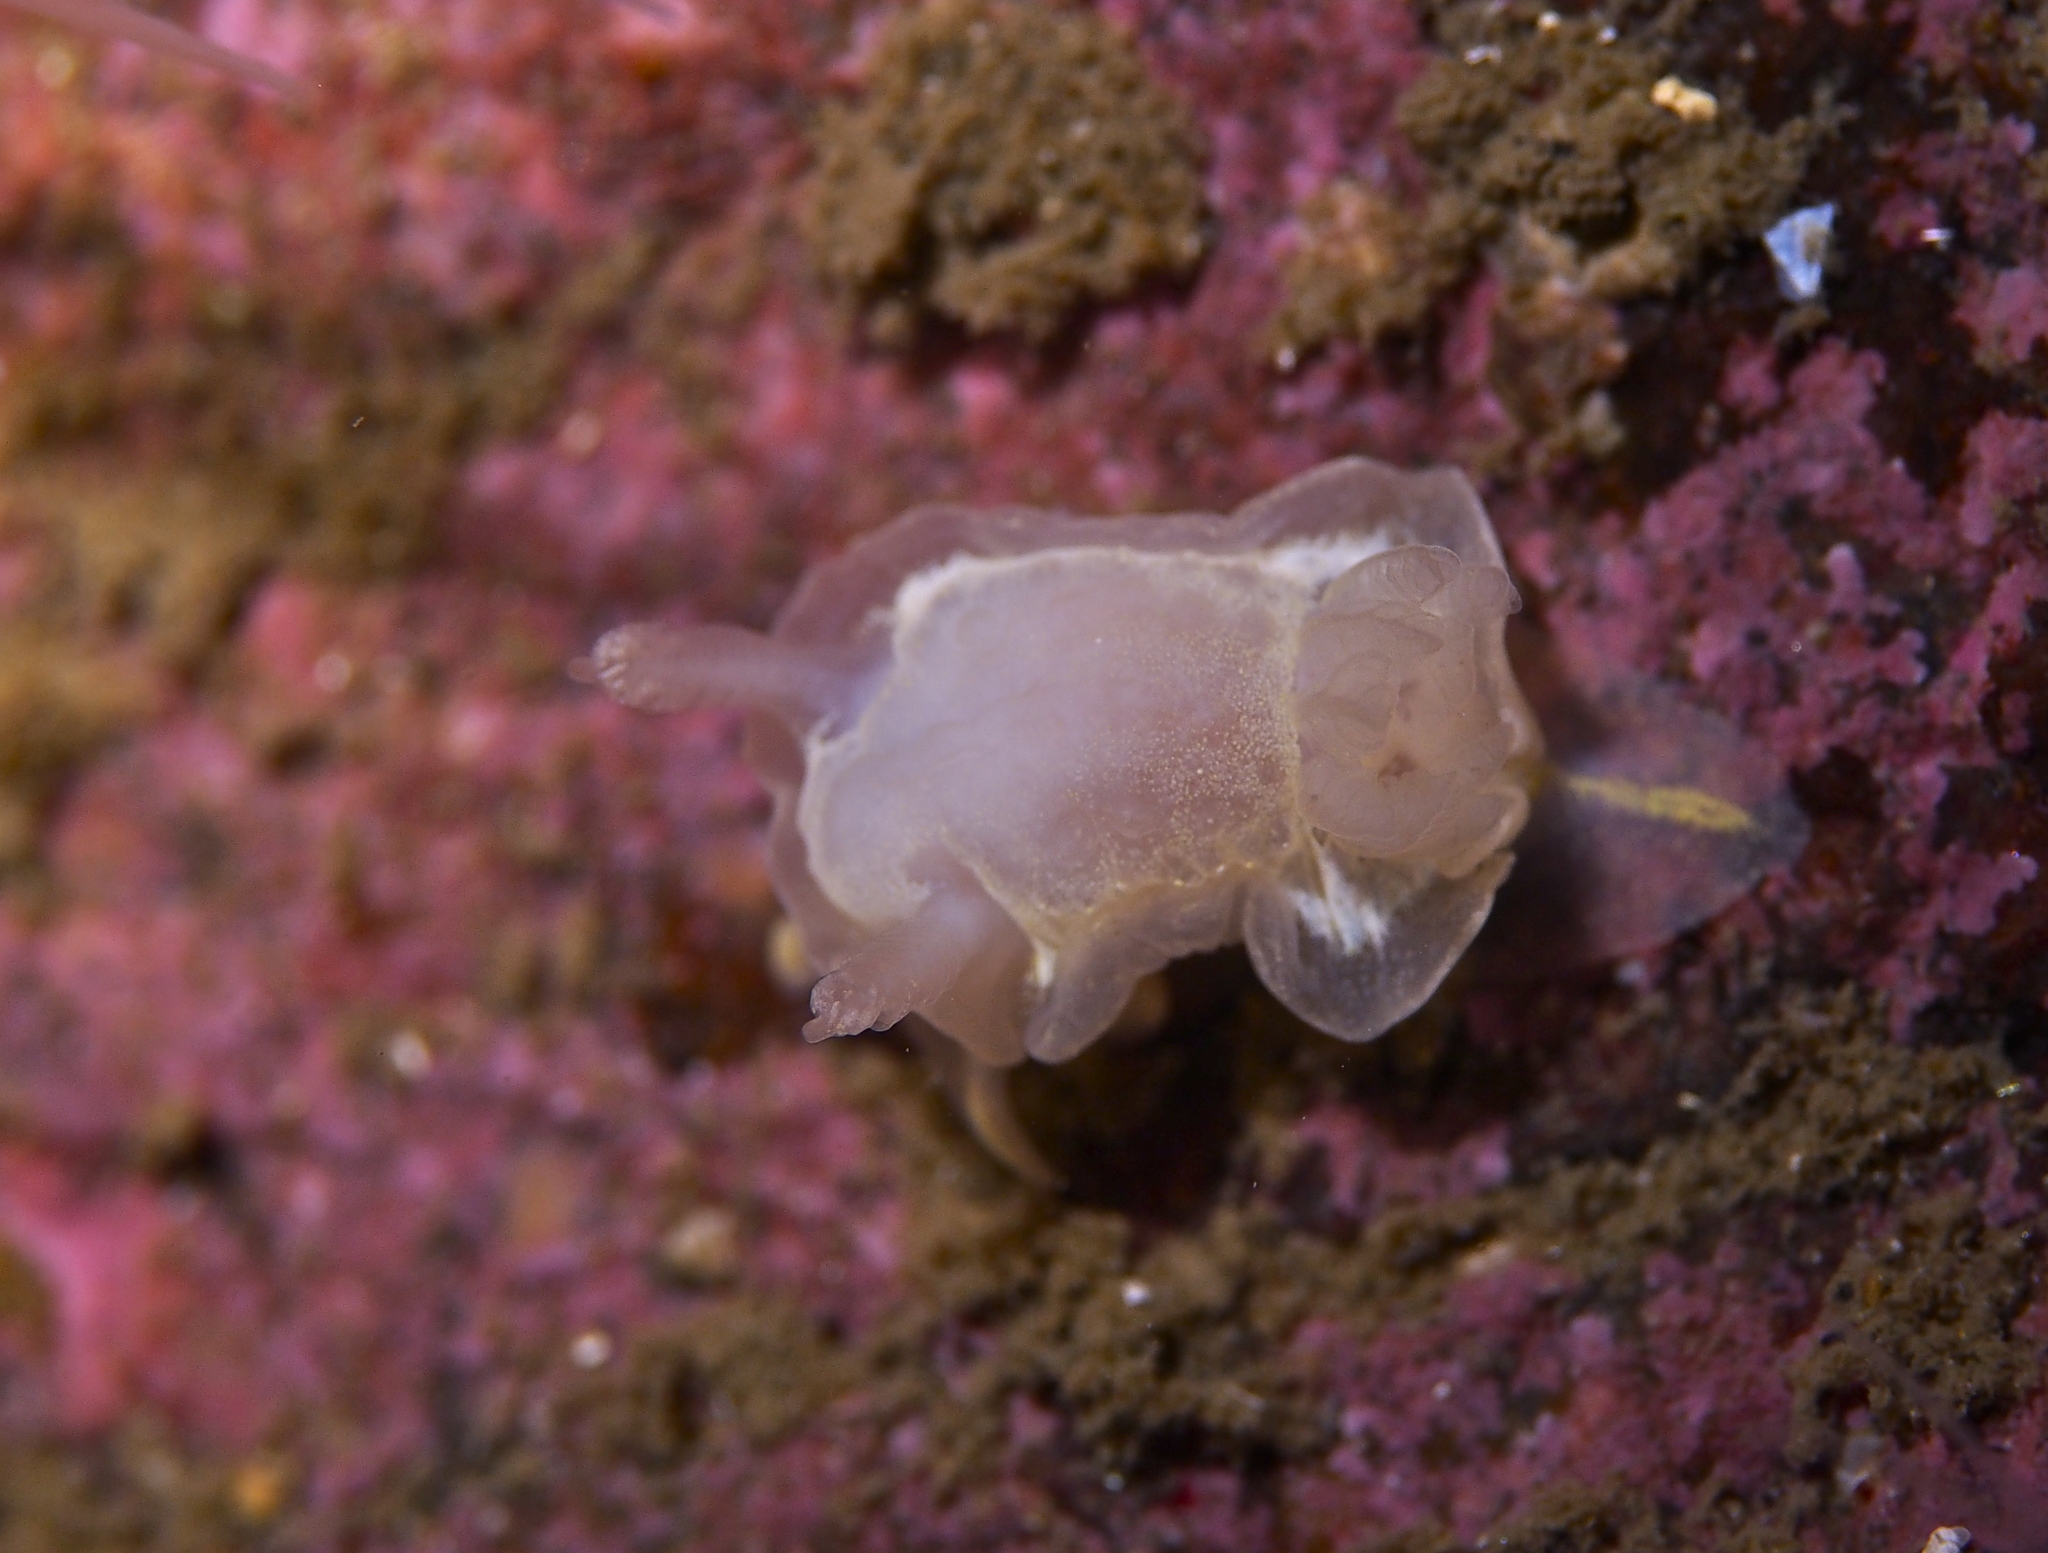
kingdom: Animalia
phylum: Mollusca
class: Gastropoda
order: Nudibranchia
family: Goniodorididae
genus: Okenia
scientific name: Okenia
